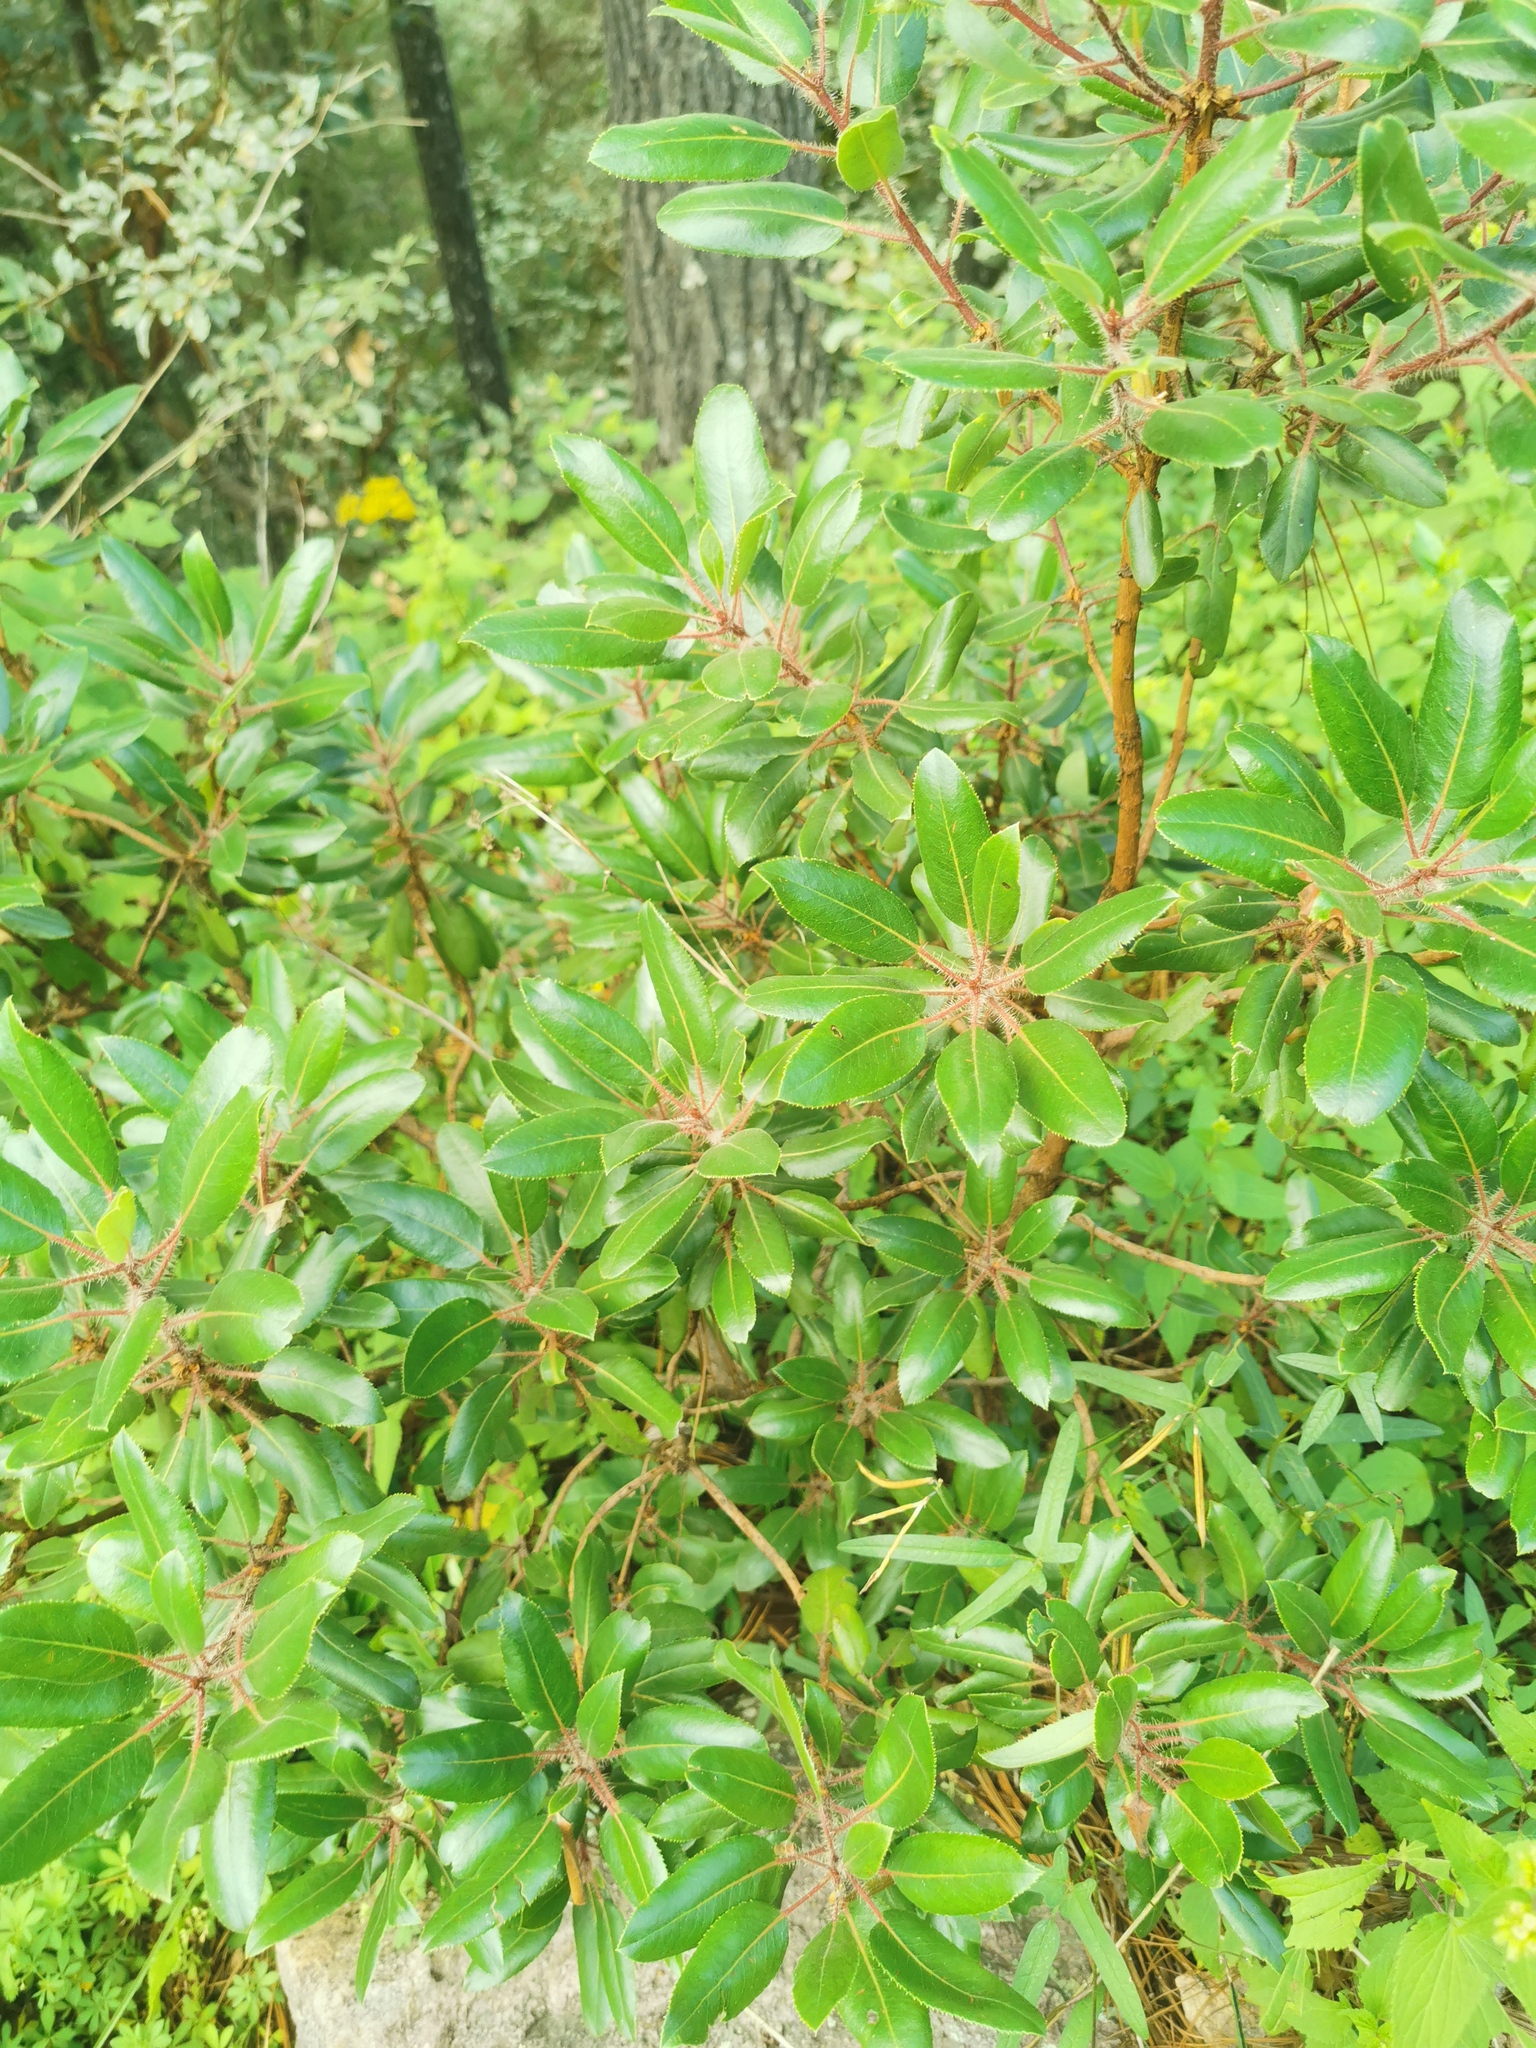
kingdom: Plantae
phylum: Tracheophyta
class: Magnoliopsida
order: Ericales
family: Ericaceae
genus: Arbutus
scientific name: Arbutus tessellata
